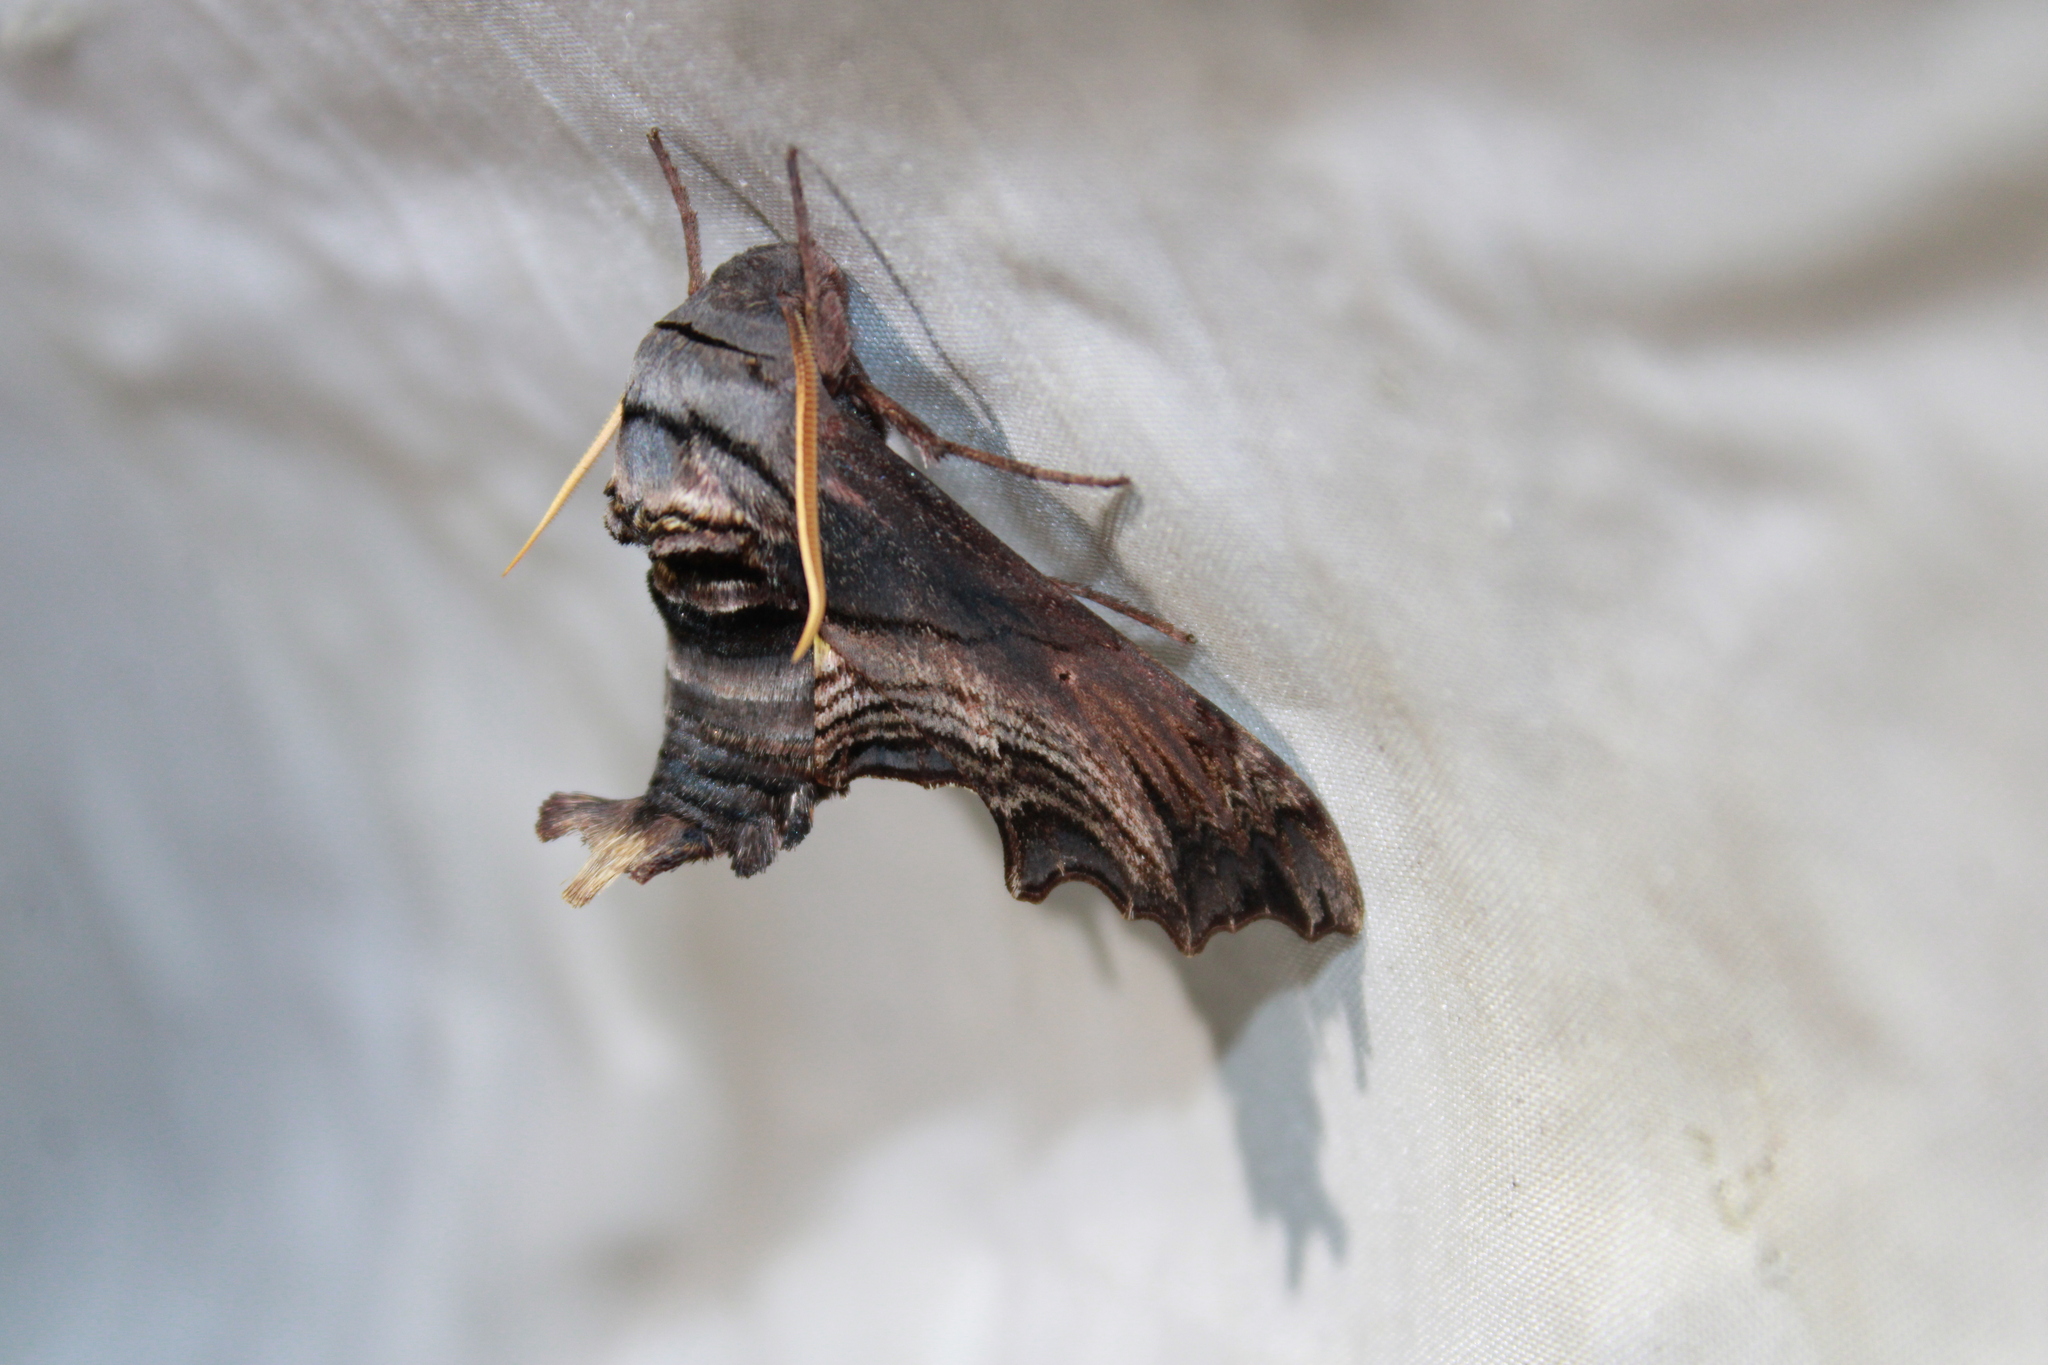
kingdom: Animalia
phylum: Arthropoda
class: Insecta
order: Lepidoptera
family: Sphingidae
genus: Sphecodina
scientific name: Sphecodina abbottii
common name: Abbott's sphinx
